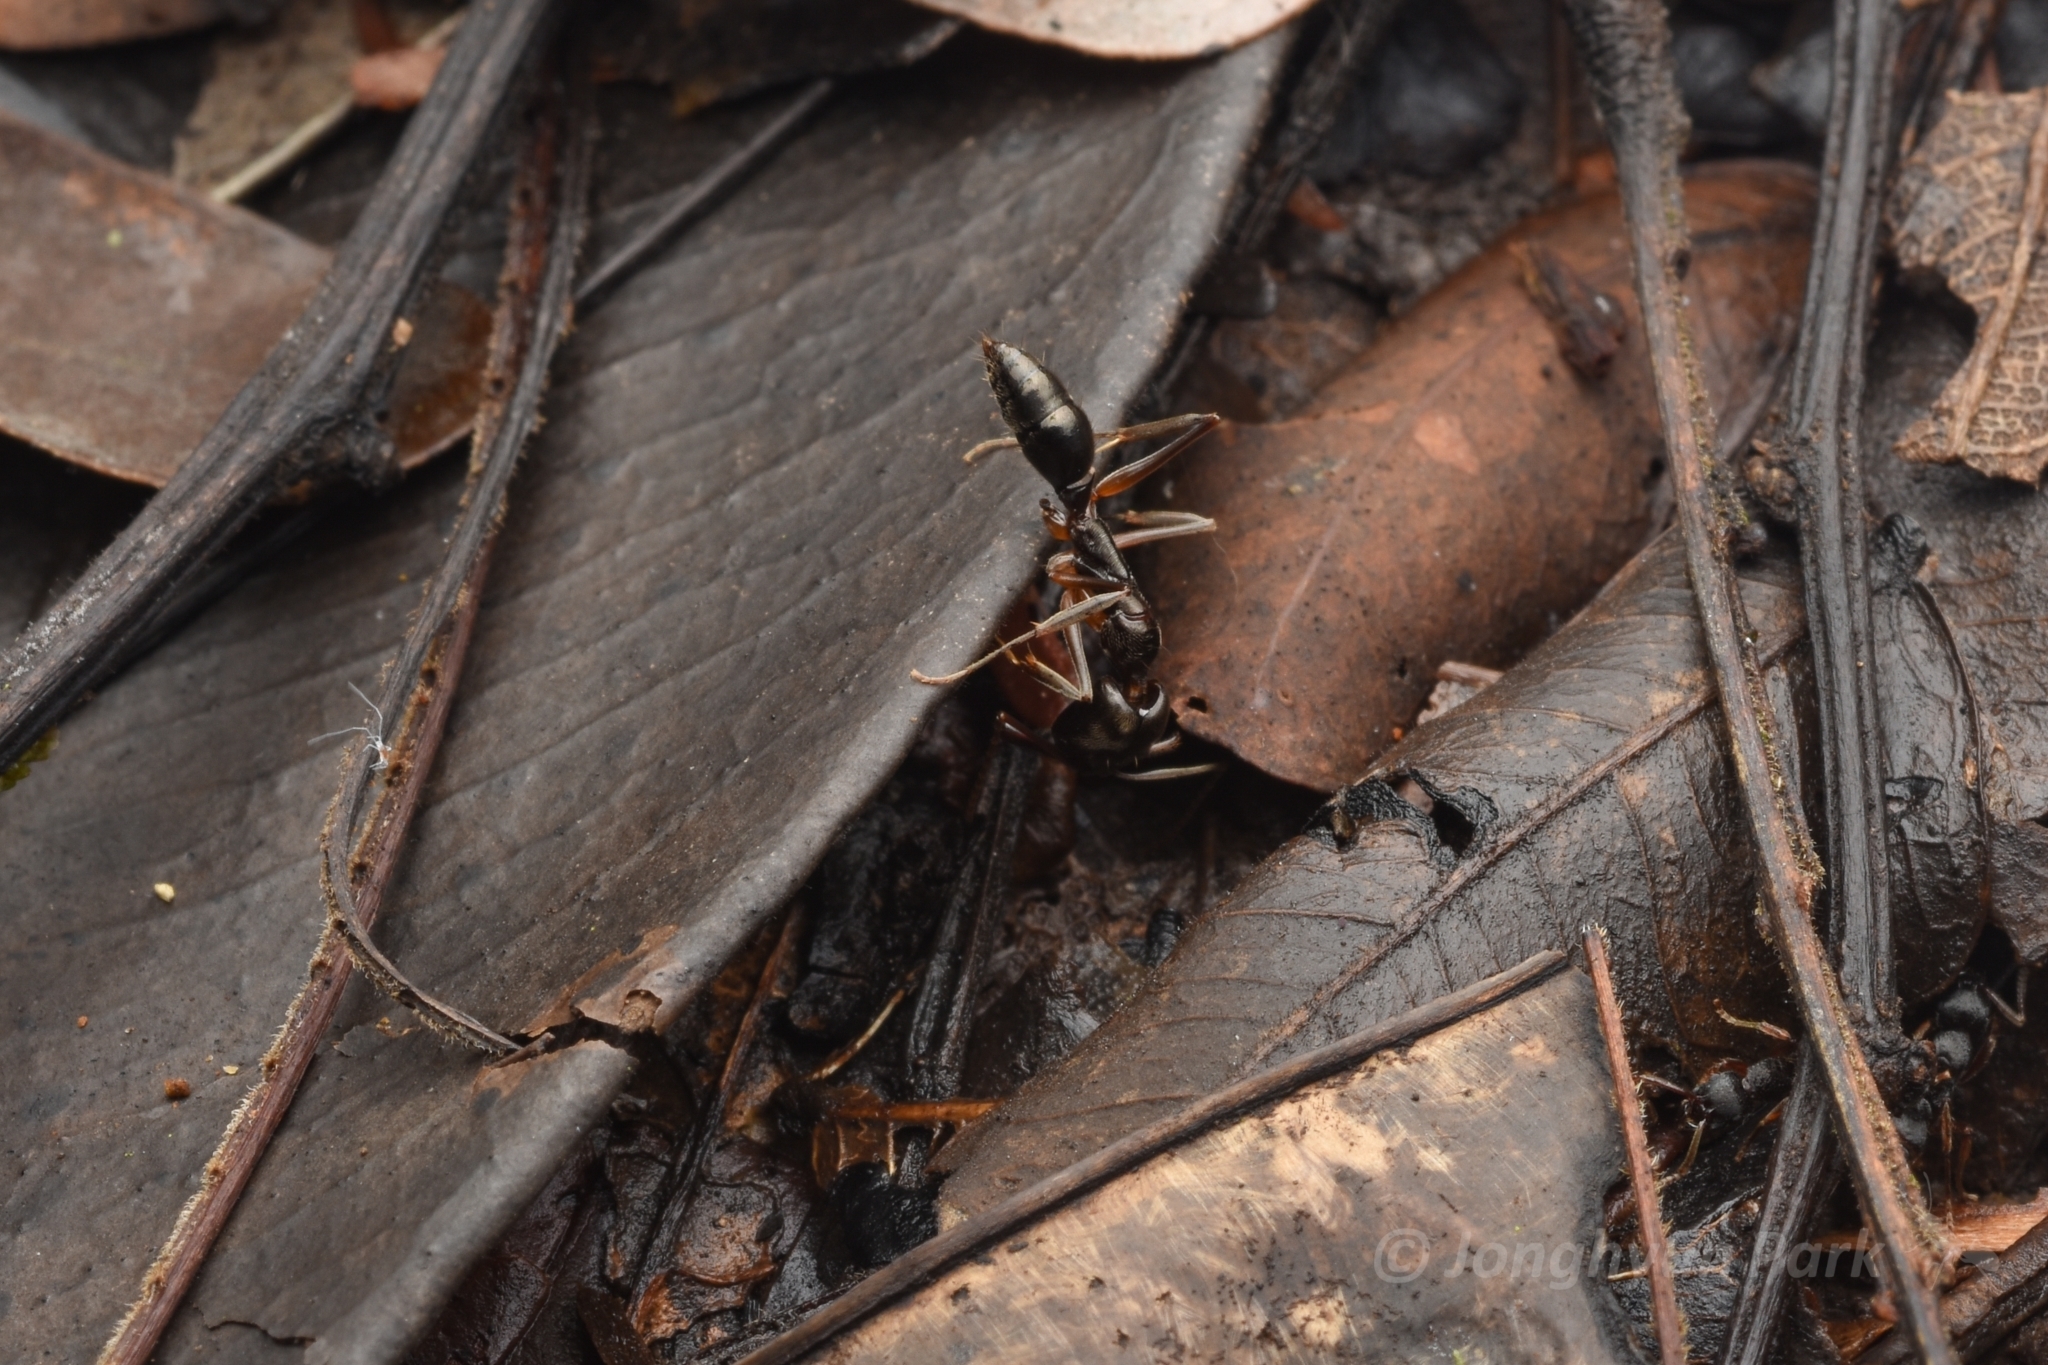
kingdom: Animalia
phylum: Arthropoda
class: Insecta
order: Hymenoptera
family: Formicidae
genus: Odontomachus
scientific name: Odontomachus haematodus
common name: Two-spined trapjaw ant
